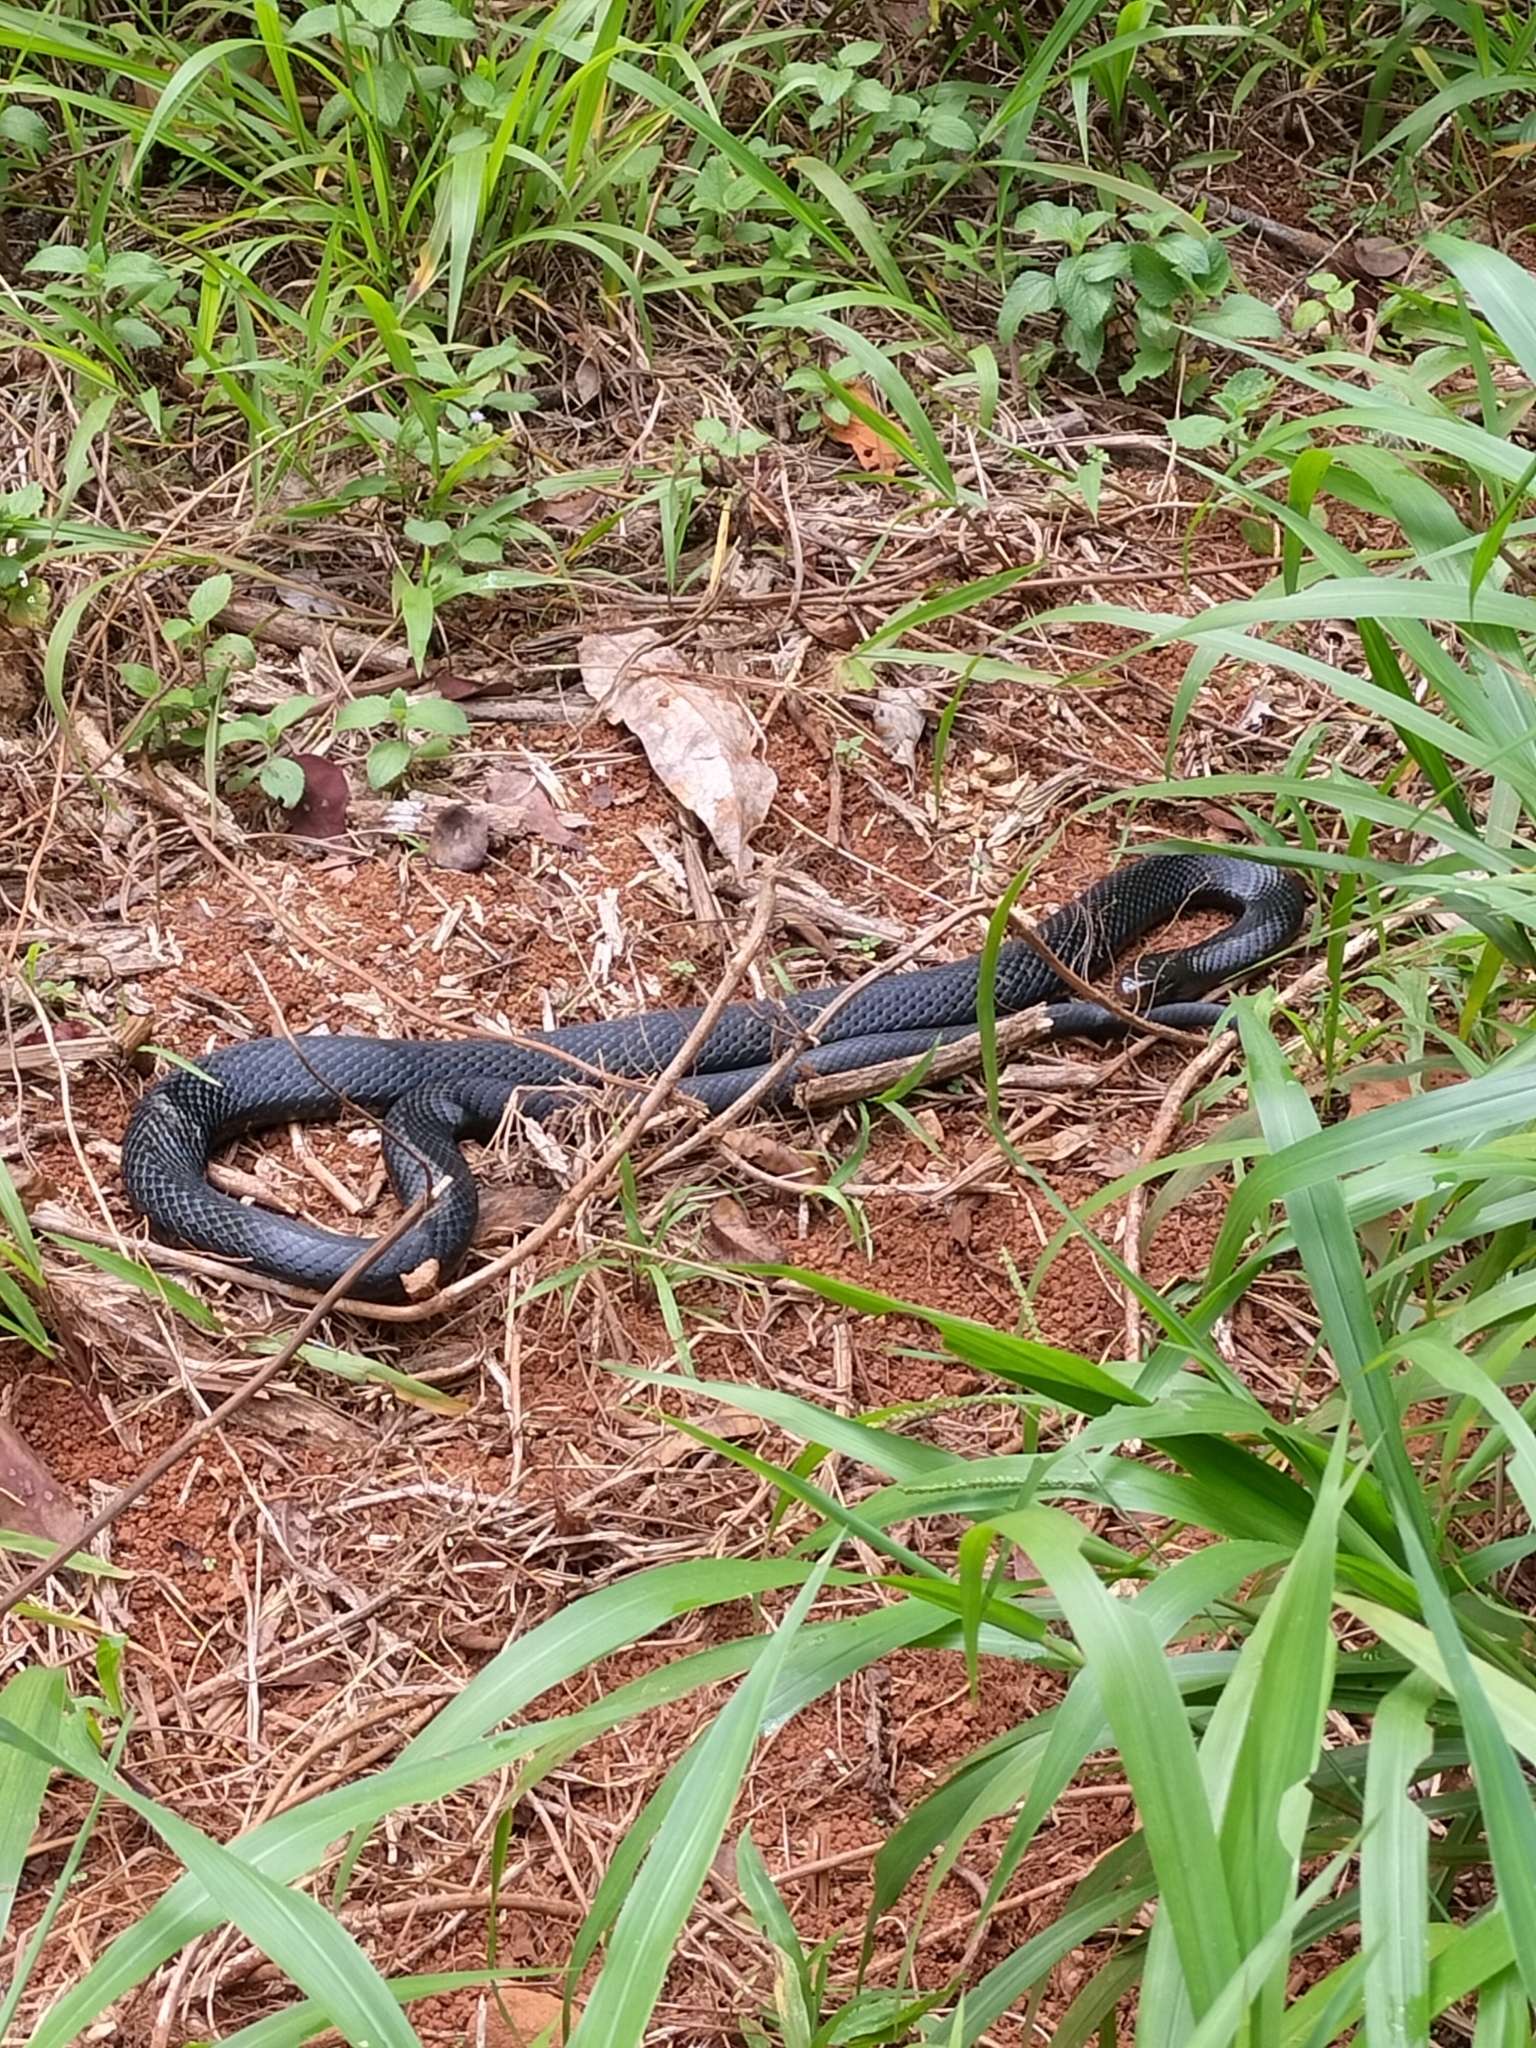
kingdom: Animalia
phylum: Chordata
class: Squamata
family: Elapidae
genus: Pseudechis
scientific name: Pseudechis porphyriacus
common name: Australian black snake
